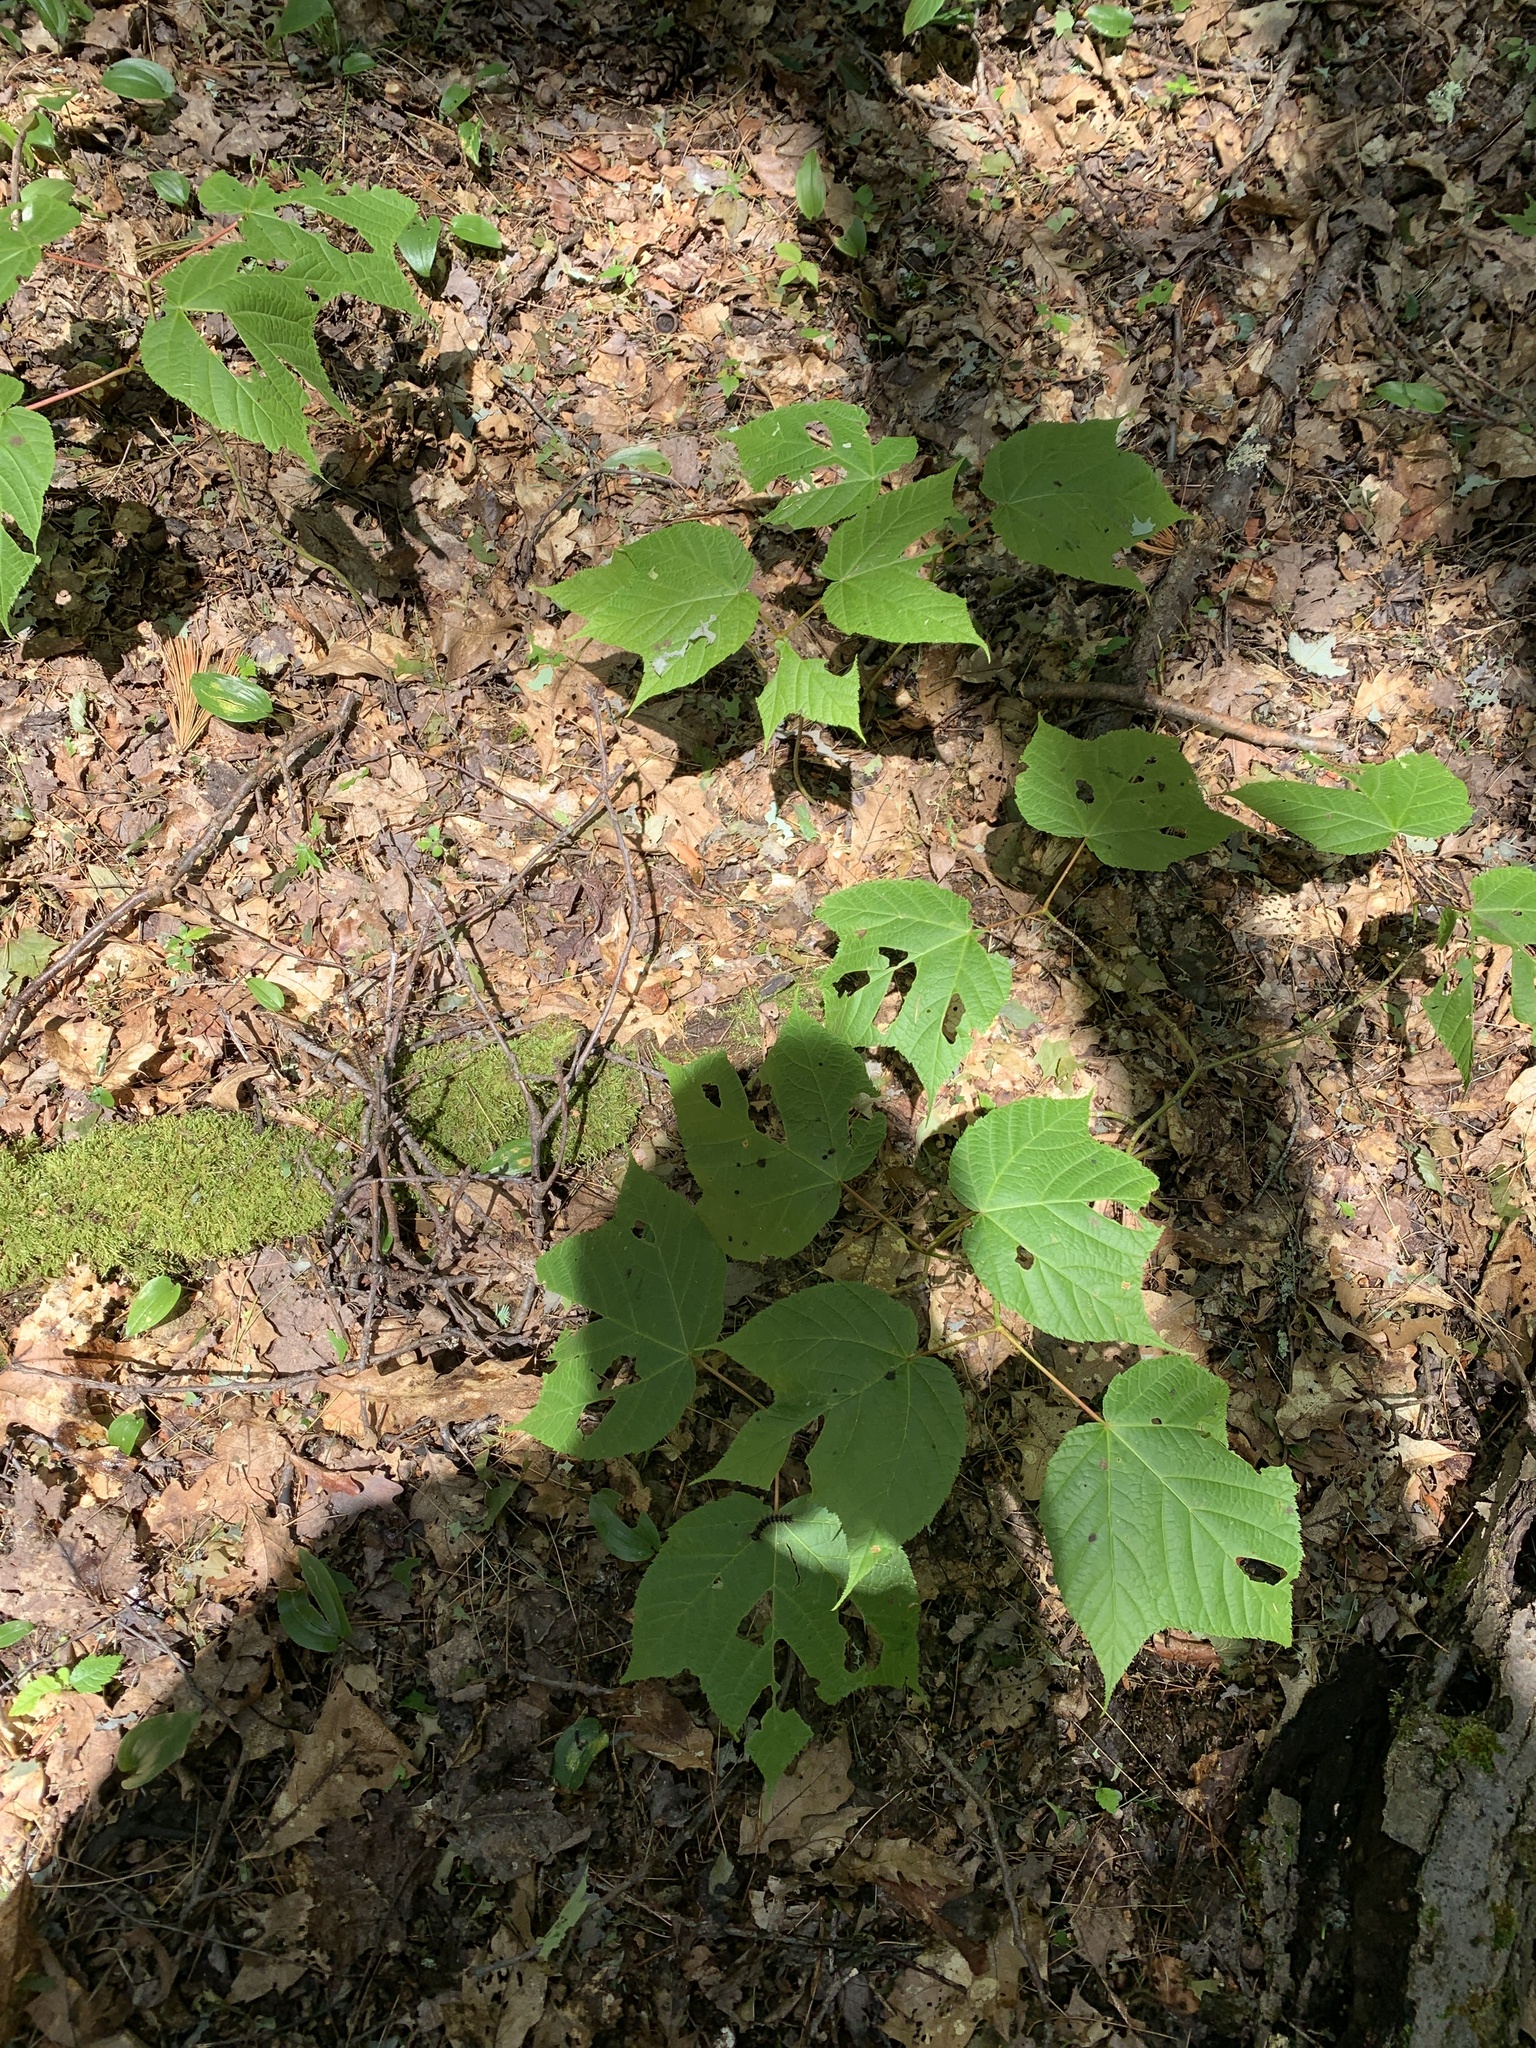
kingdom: Plantae
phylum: Tracheophyta
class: Magnoliopsida
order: Sapindales
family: Sapindaceae
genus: Acer
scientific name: Acer pensylvanicum
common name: Moosewood
